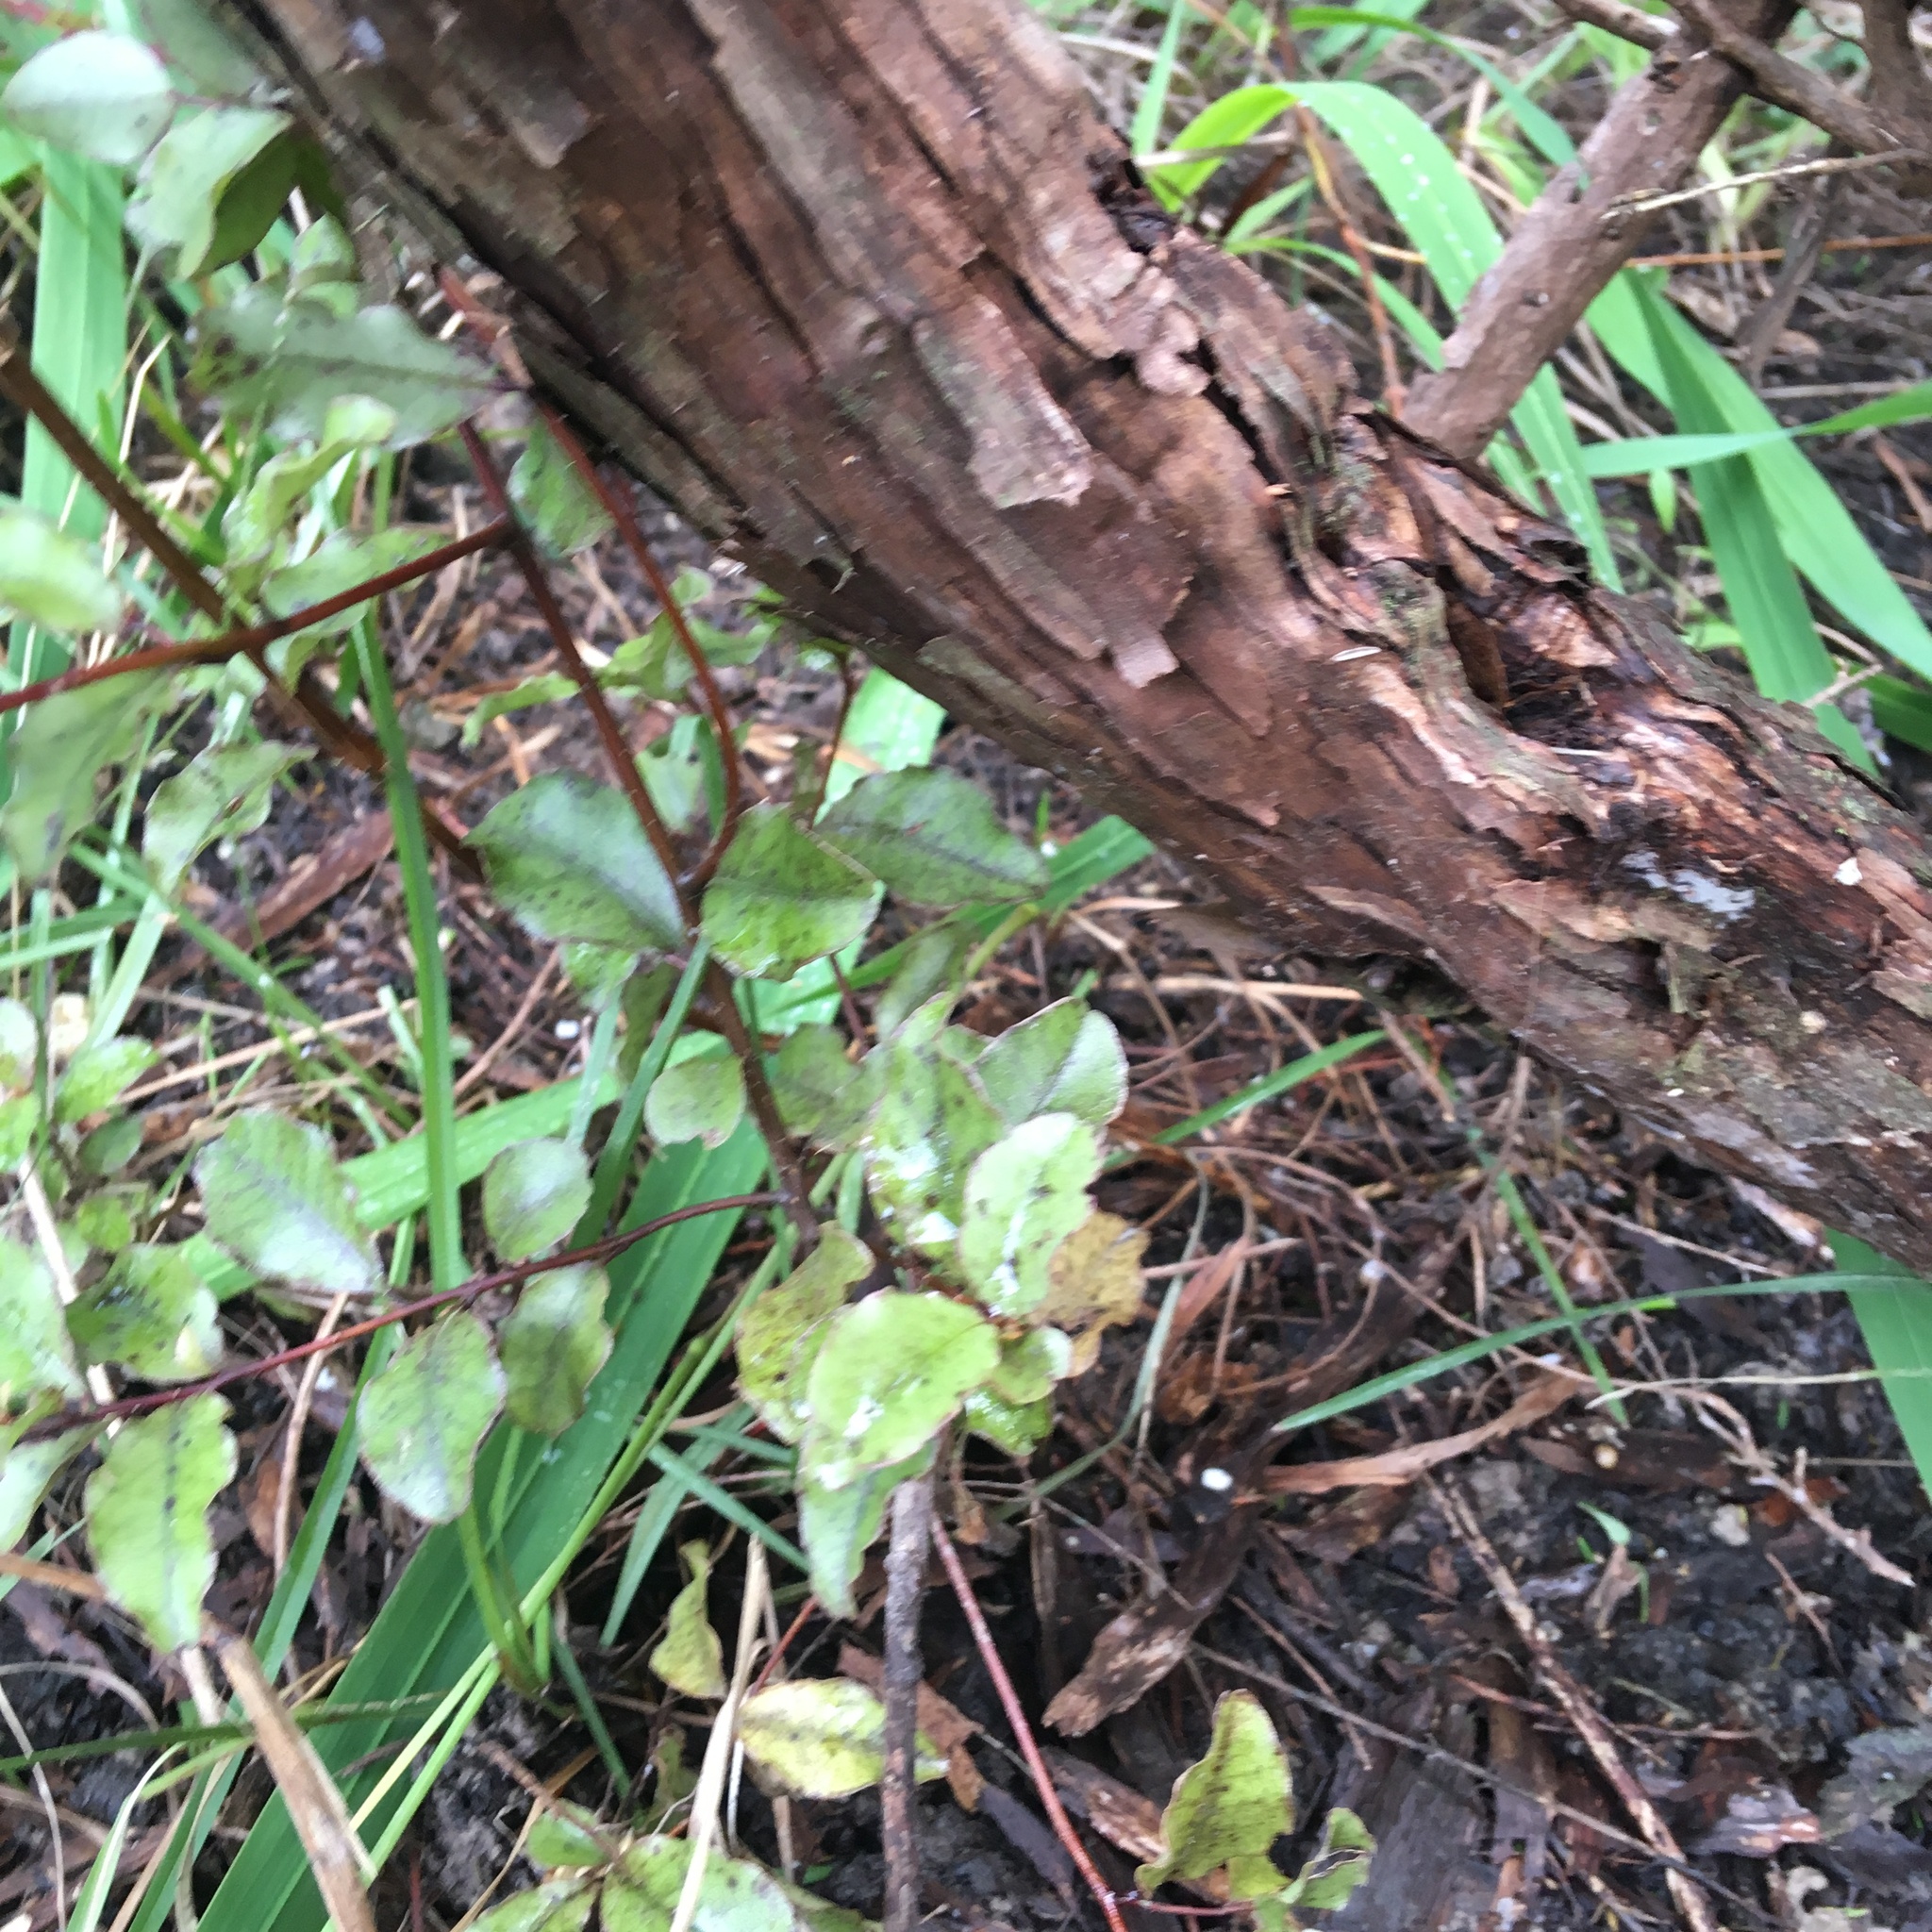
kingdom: Plantae
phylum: Tracheophyta
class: Magnoliopsida
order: Ericales
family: Primulaceae
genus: Myrsine
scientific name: Myrsine australis
